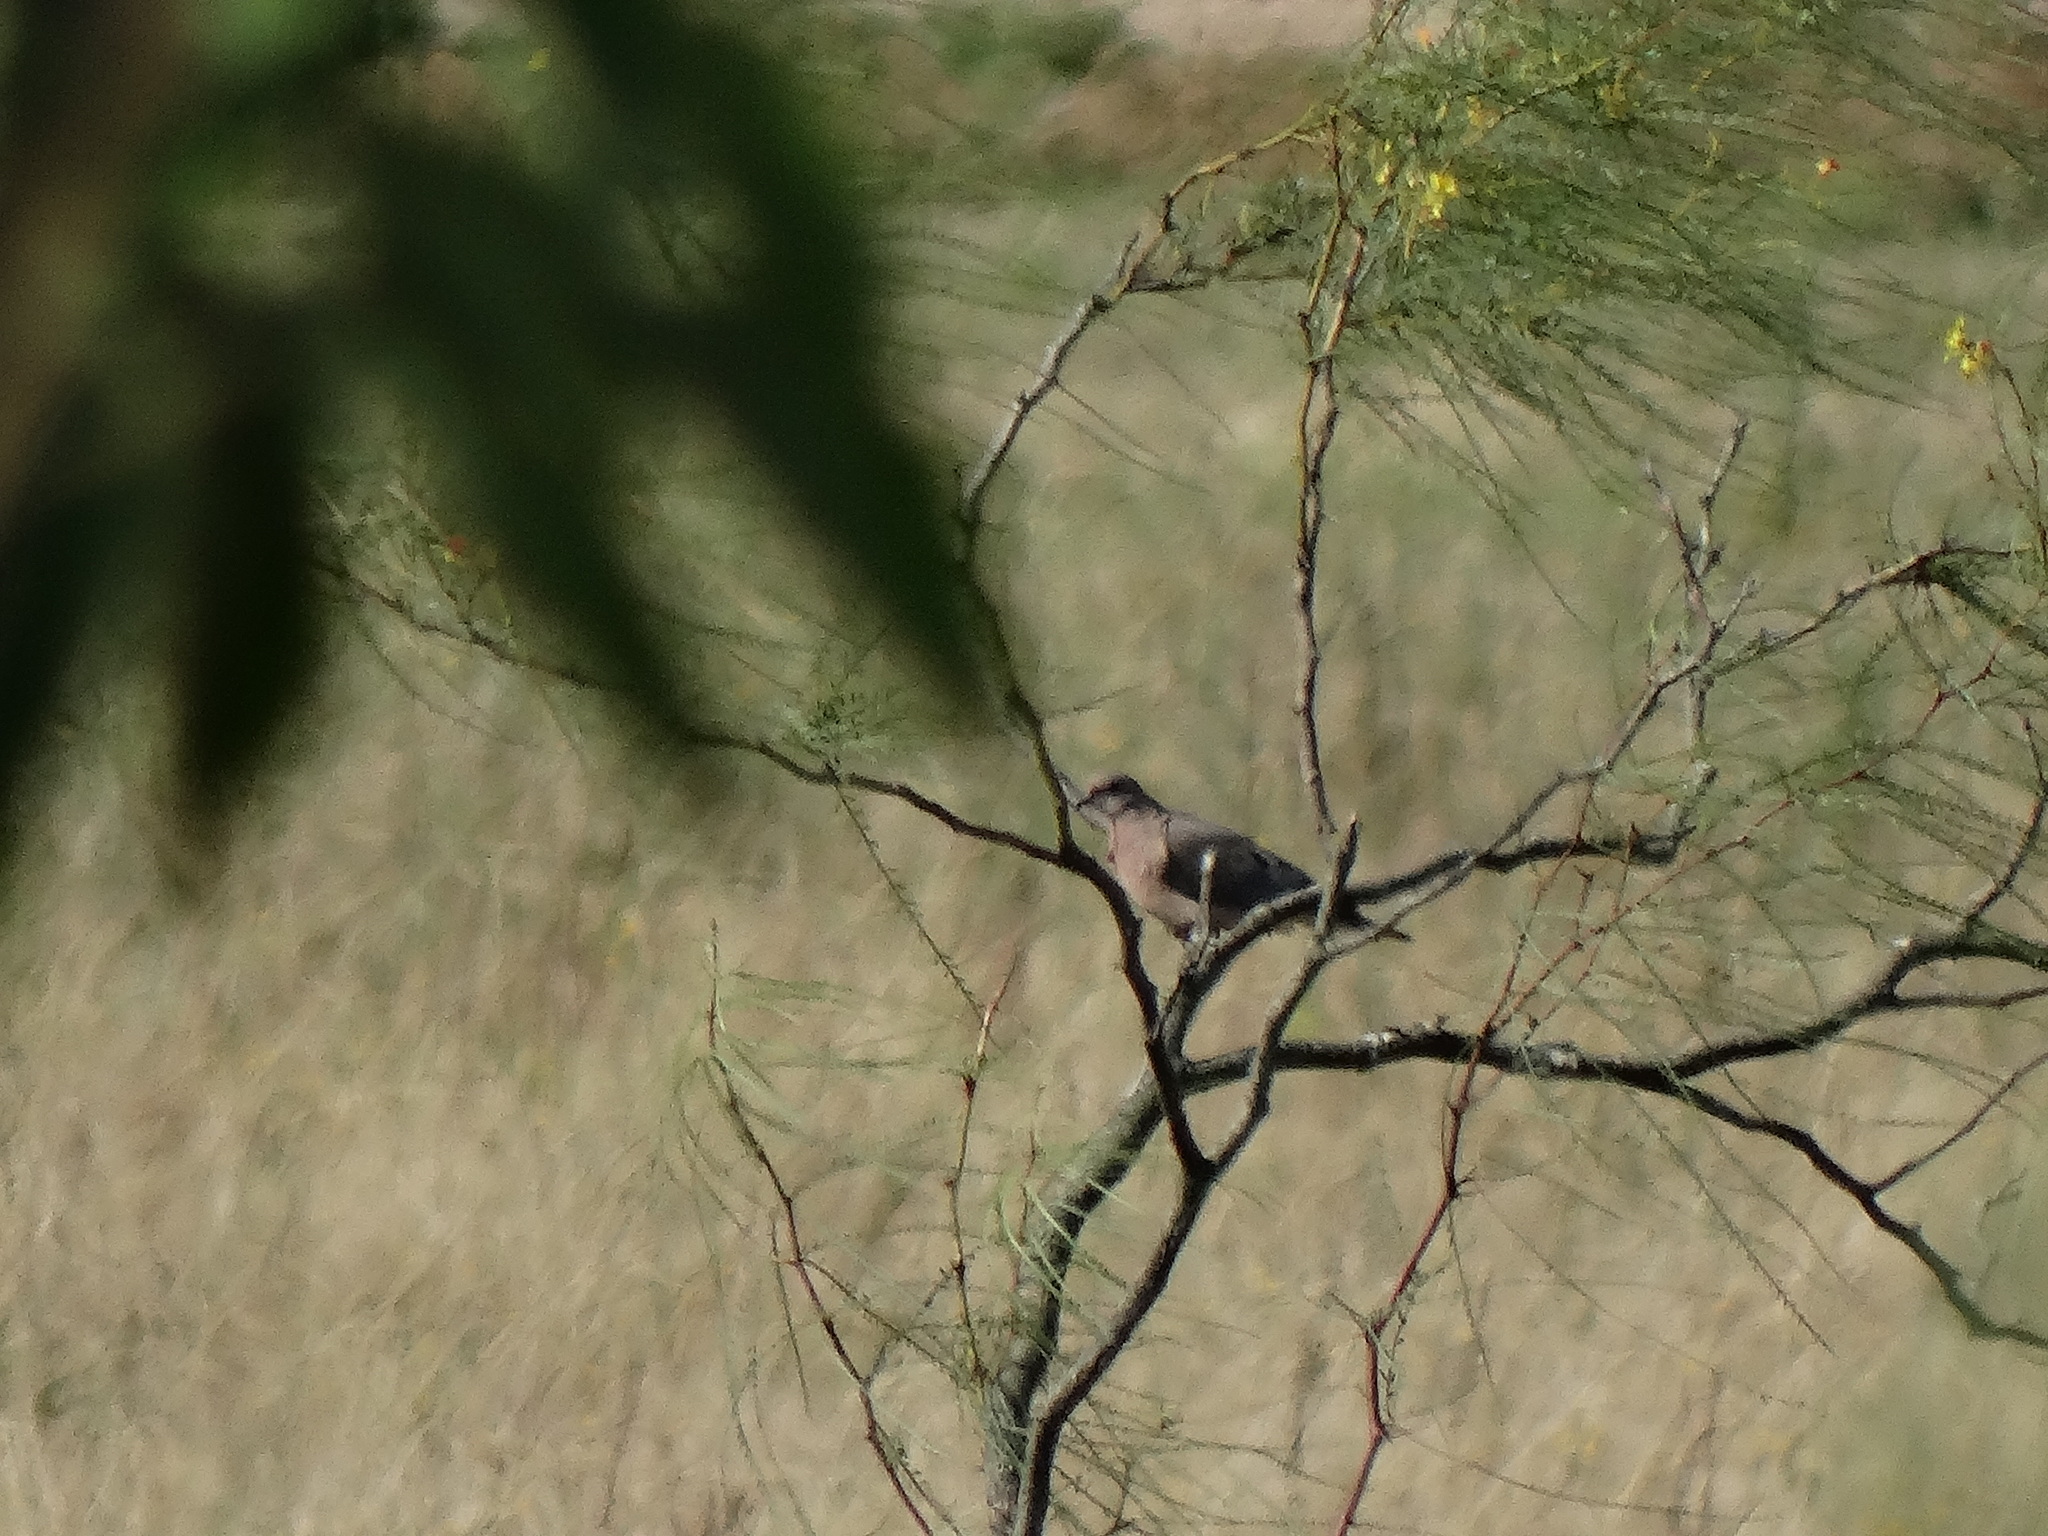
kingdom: Animalia
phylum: Chordata
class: Aves
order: Columbiformes
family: Columbidae
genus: Zenaida
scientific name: Zenaida auriculata
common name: Eared dove
